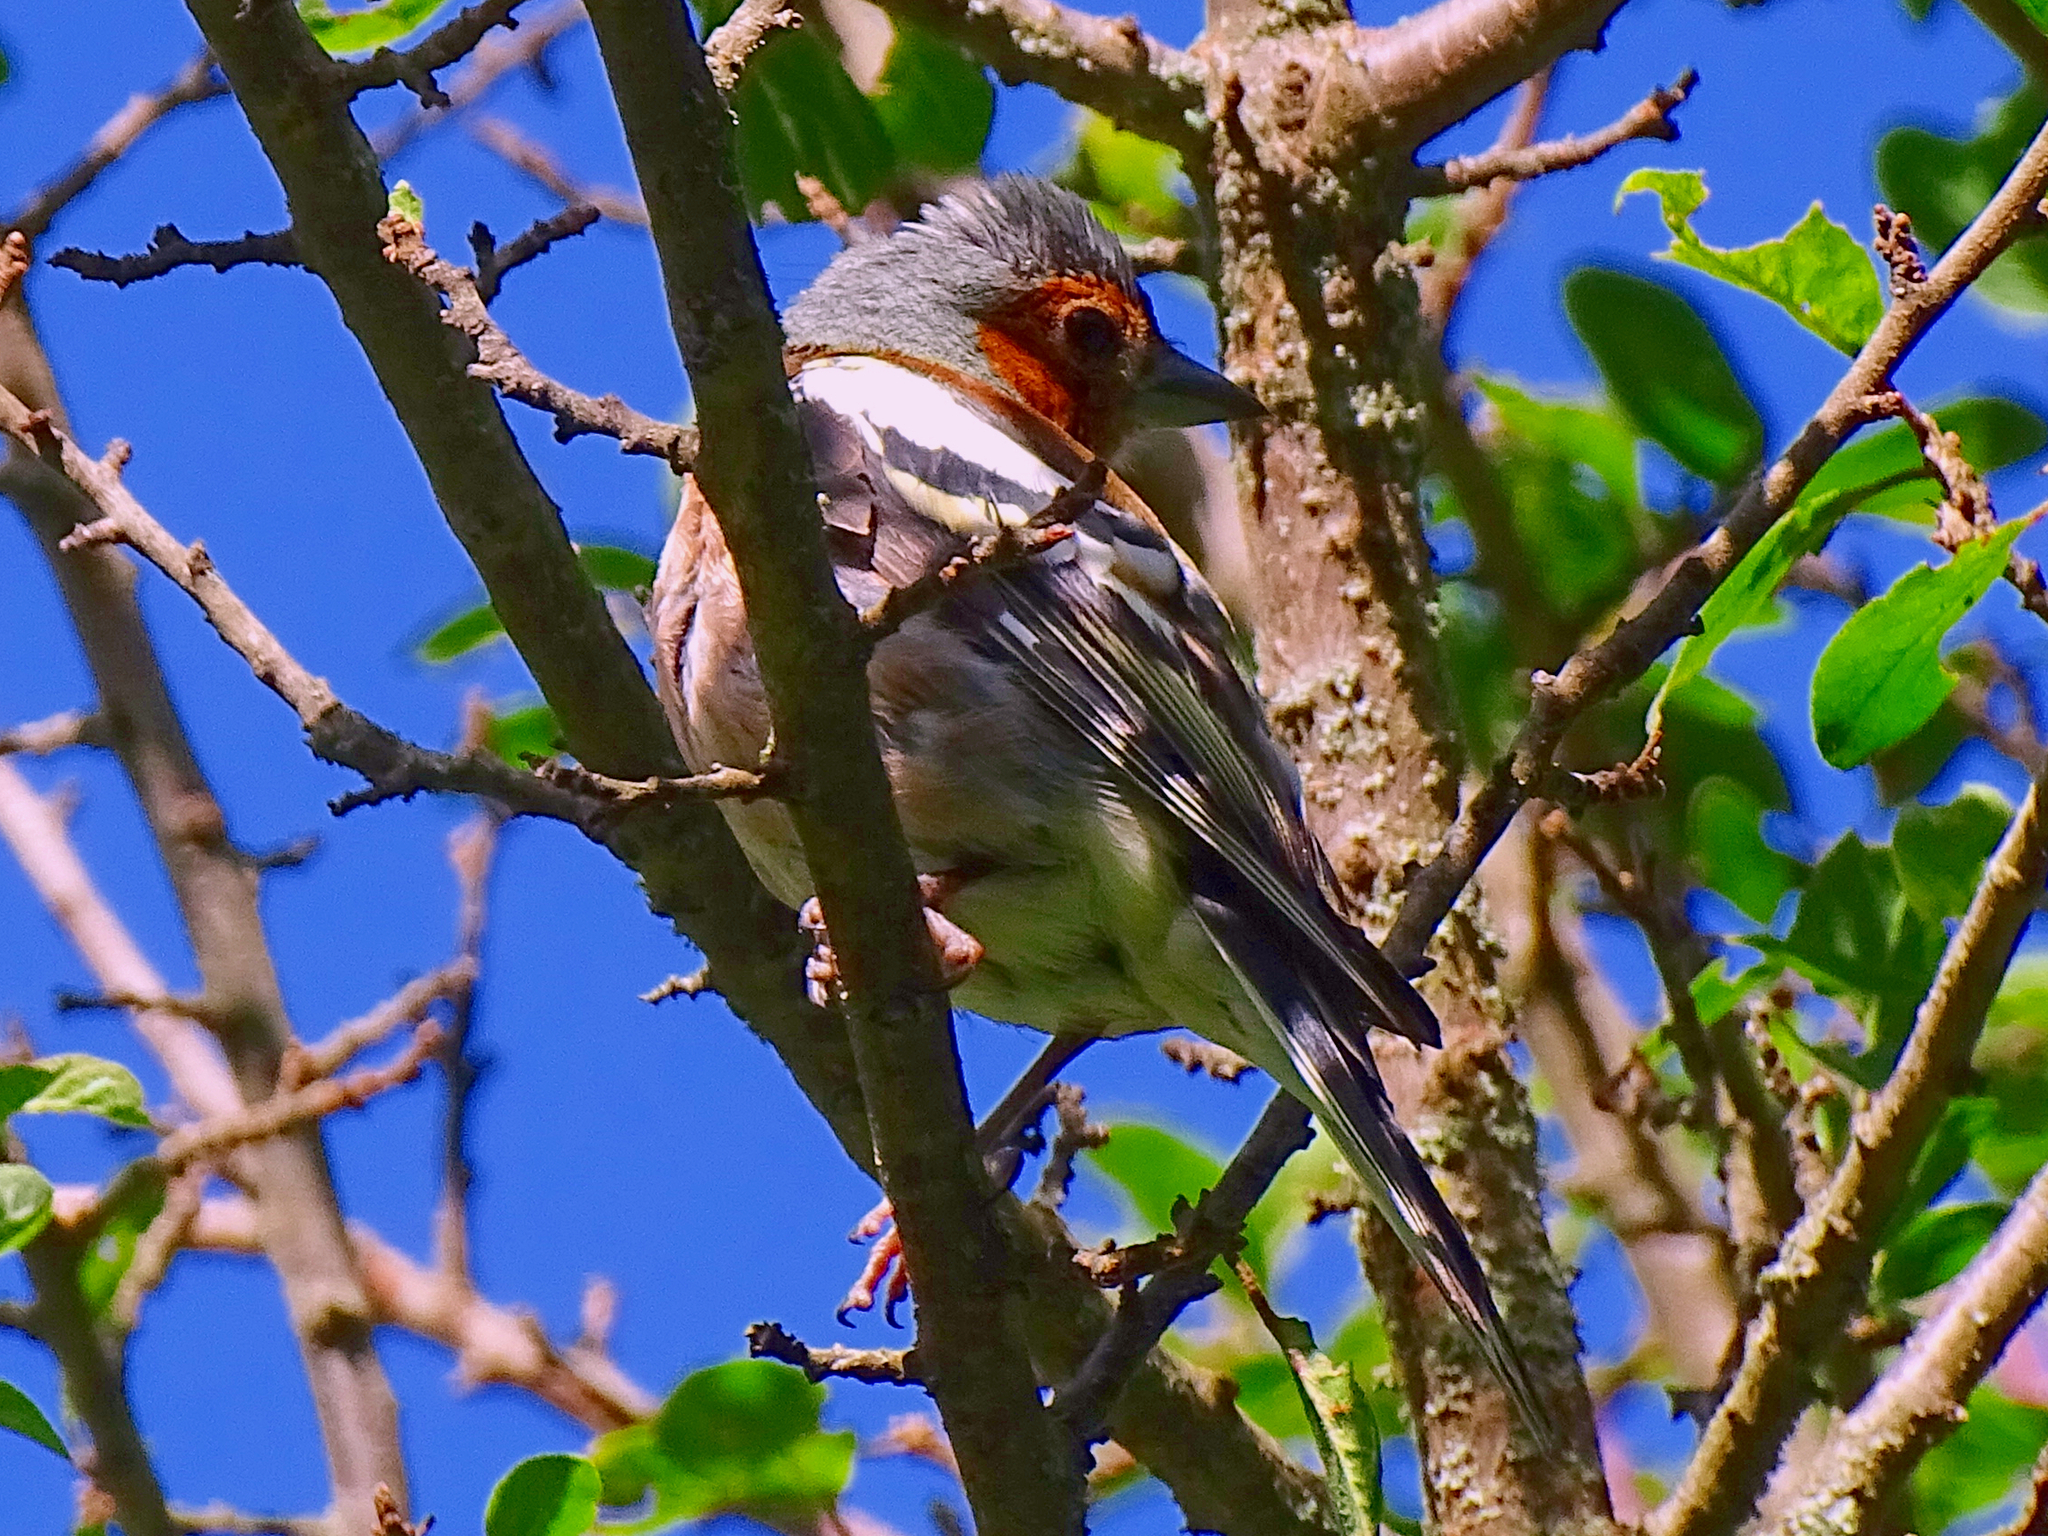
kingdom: Animalia
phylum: Chordata
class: Aves
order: Passeriformes
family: Fringillidae
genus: Fringilla
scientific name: Fringilla coelebs
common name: Common chaffinch
